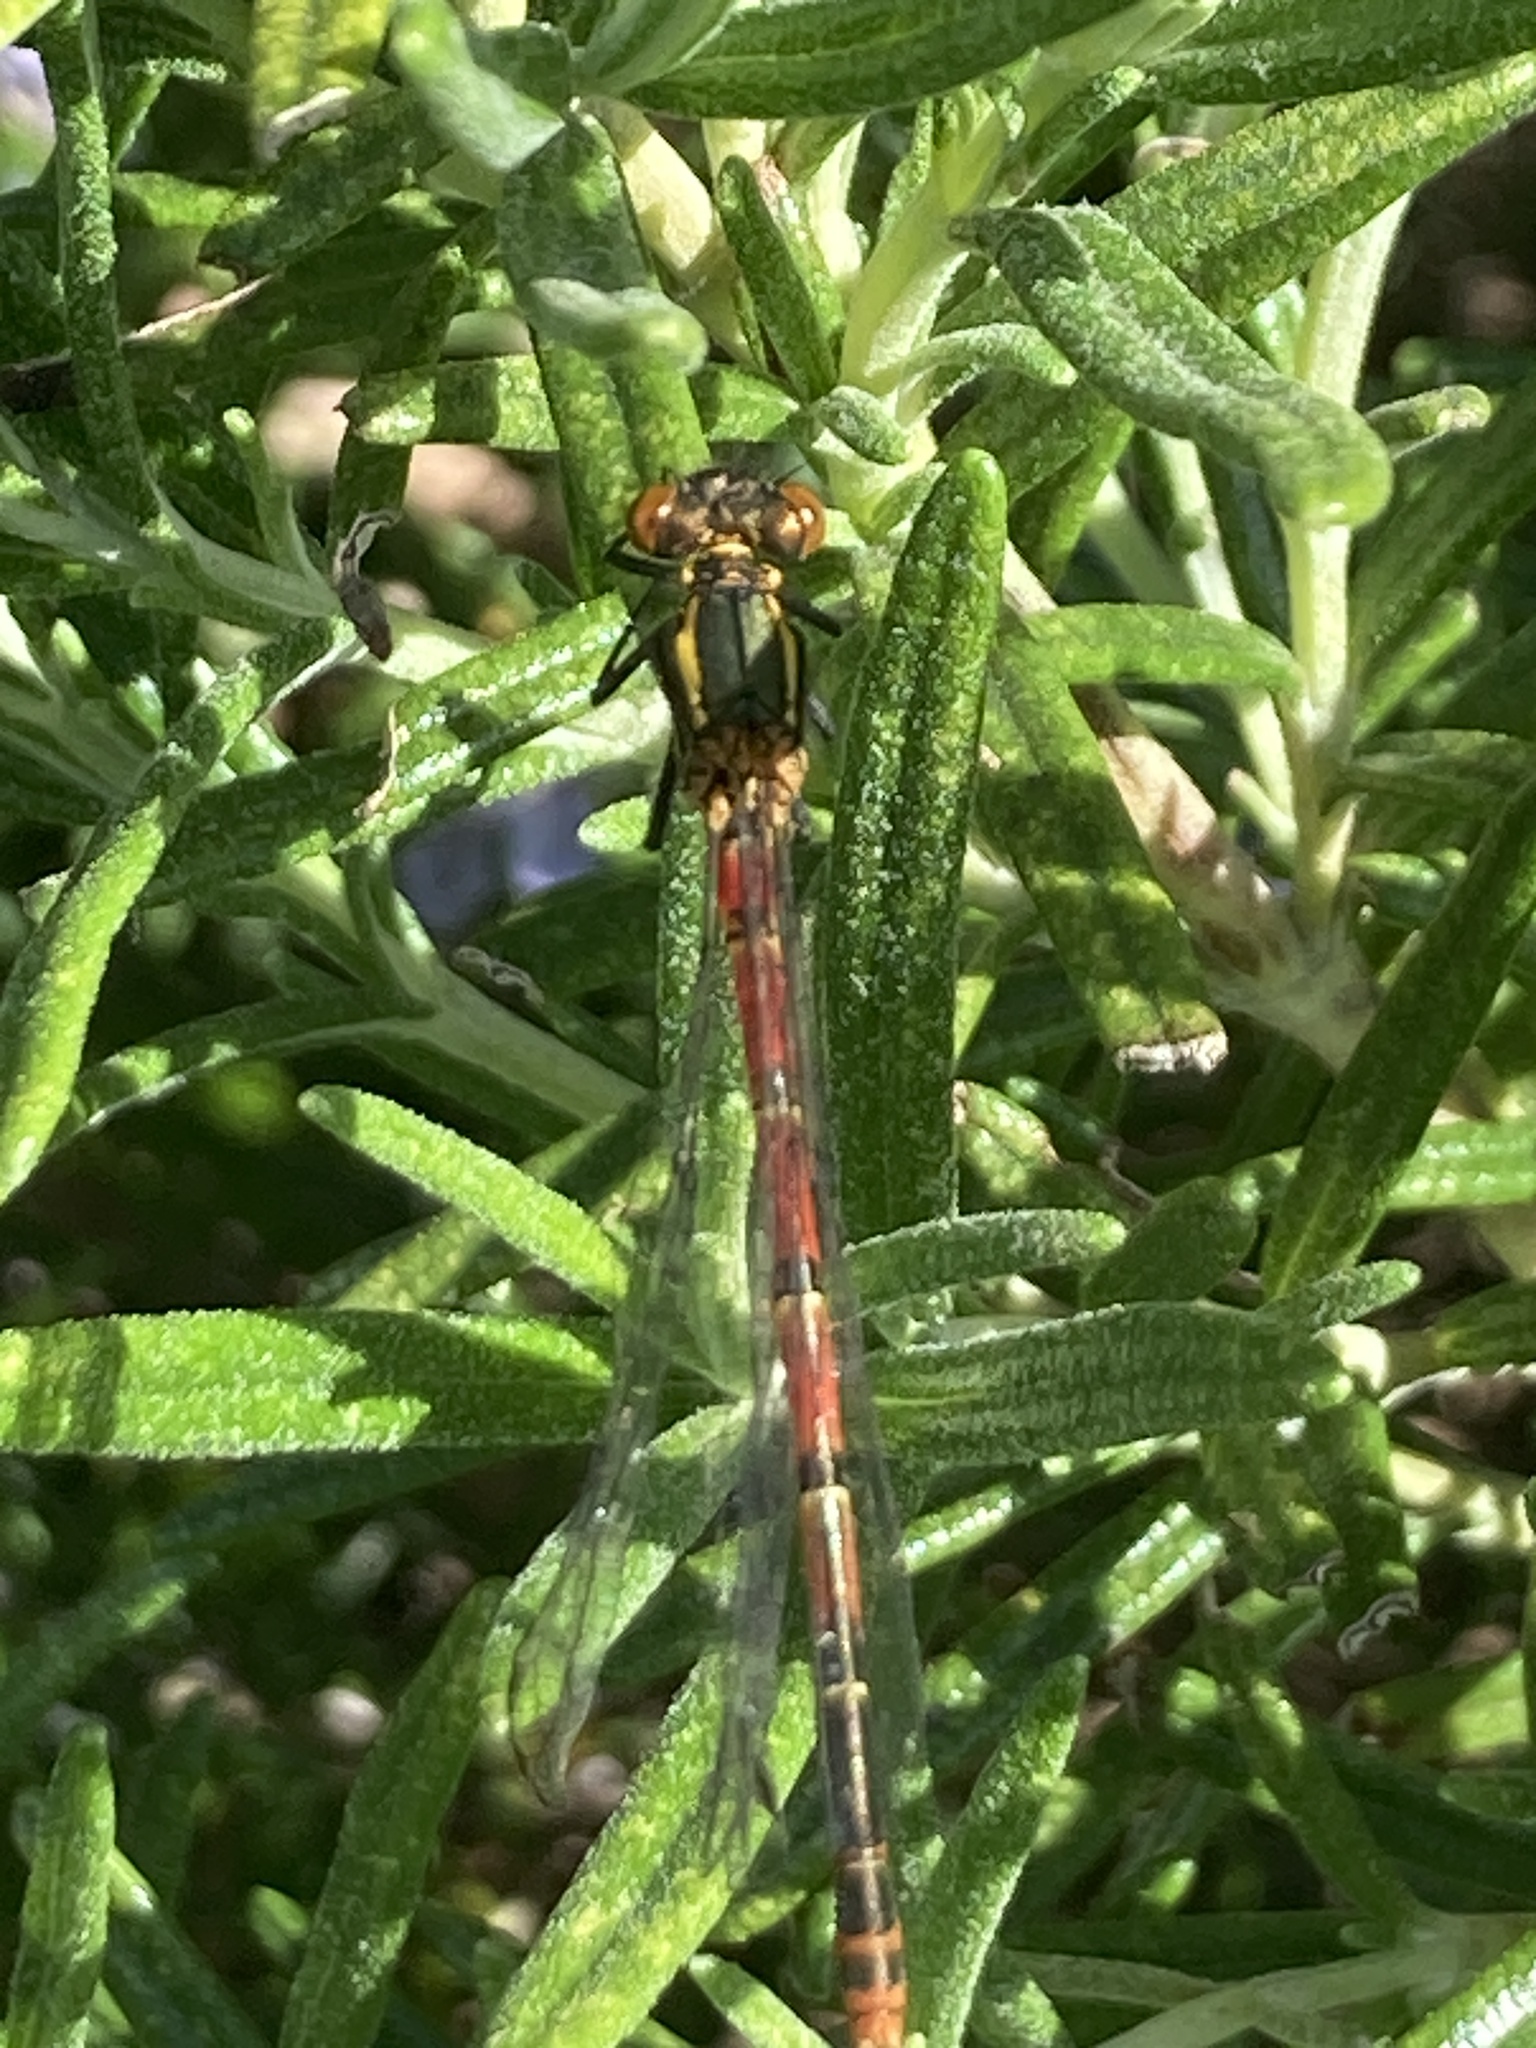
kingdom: Animalia
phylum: Arthropoda
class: Insecta
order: Odonata
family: Coenagrionidae
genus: Pyrrhosoma
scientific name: Pyrrhosoma nymphula
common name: Large red damsel
